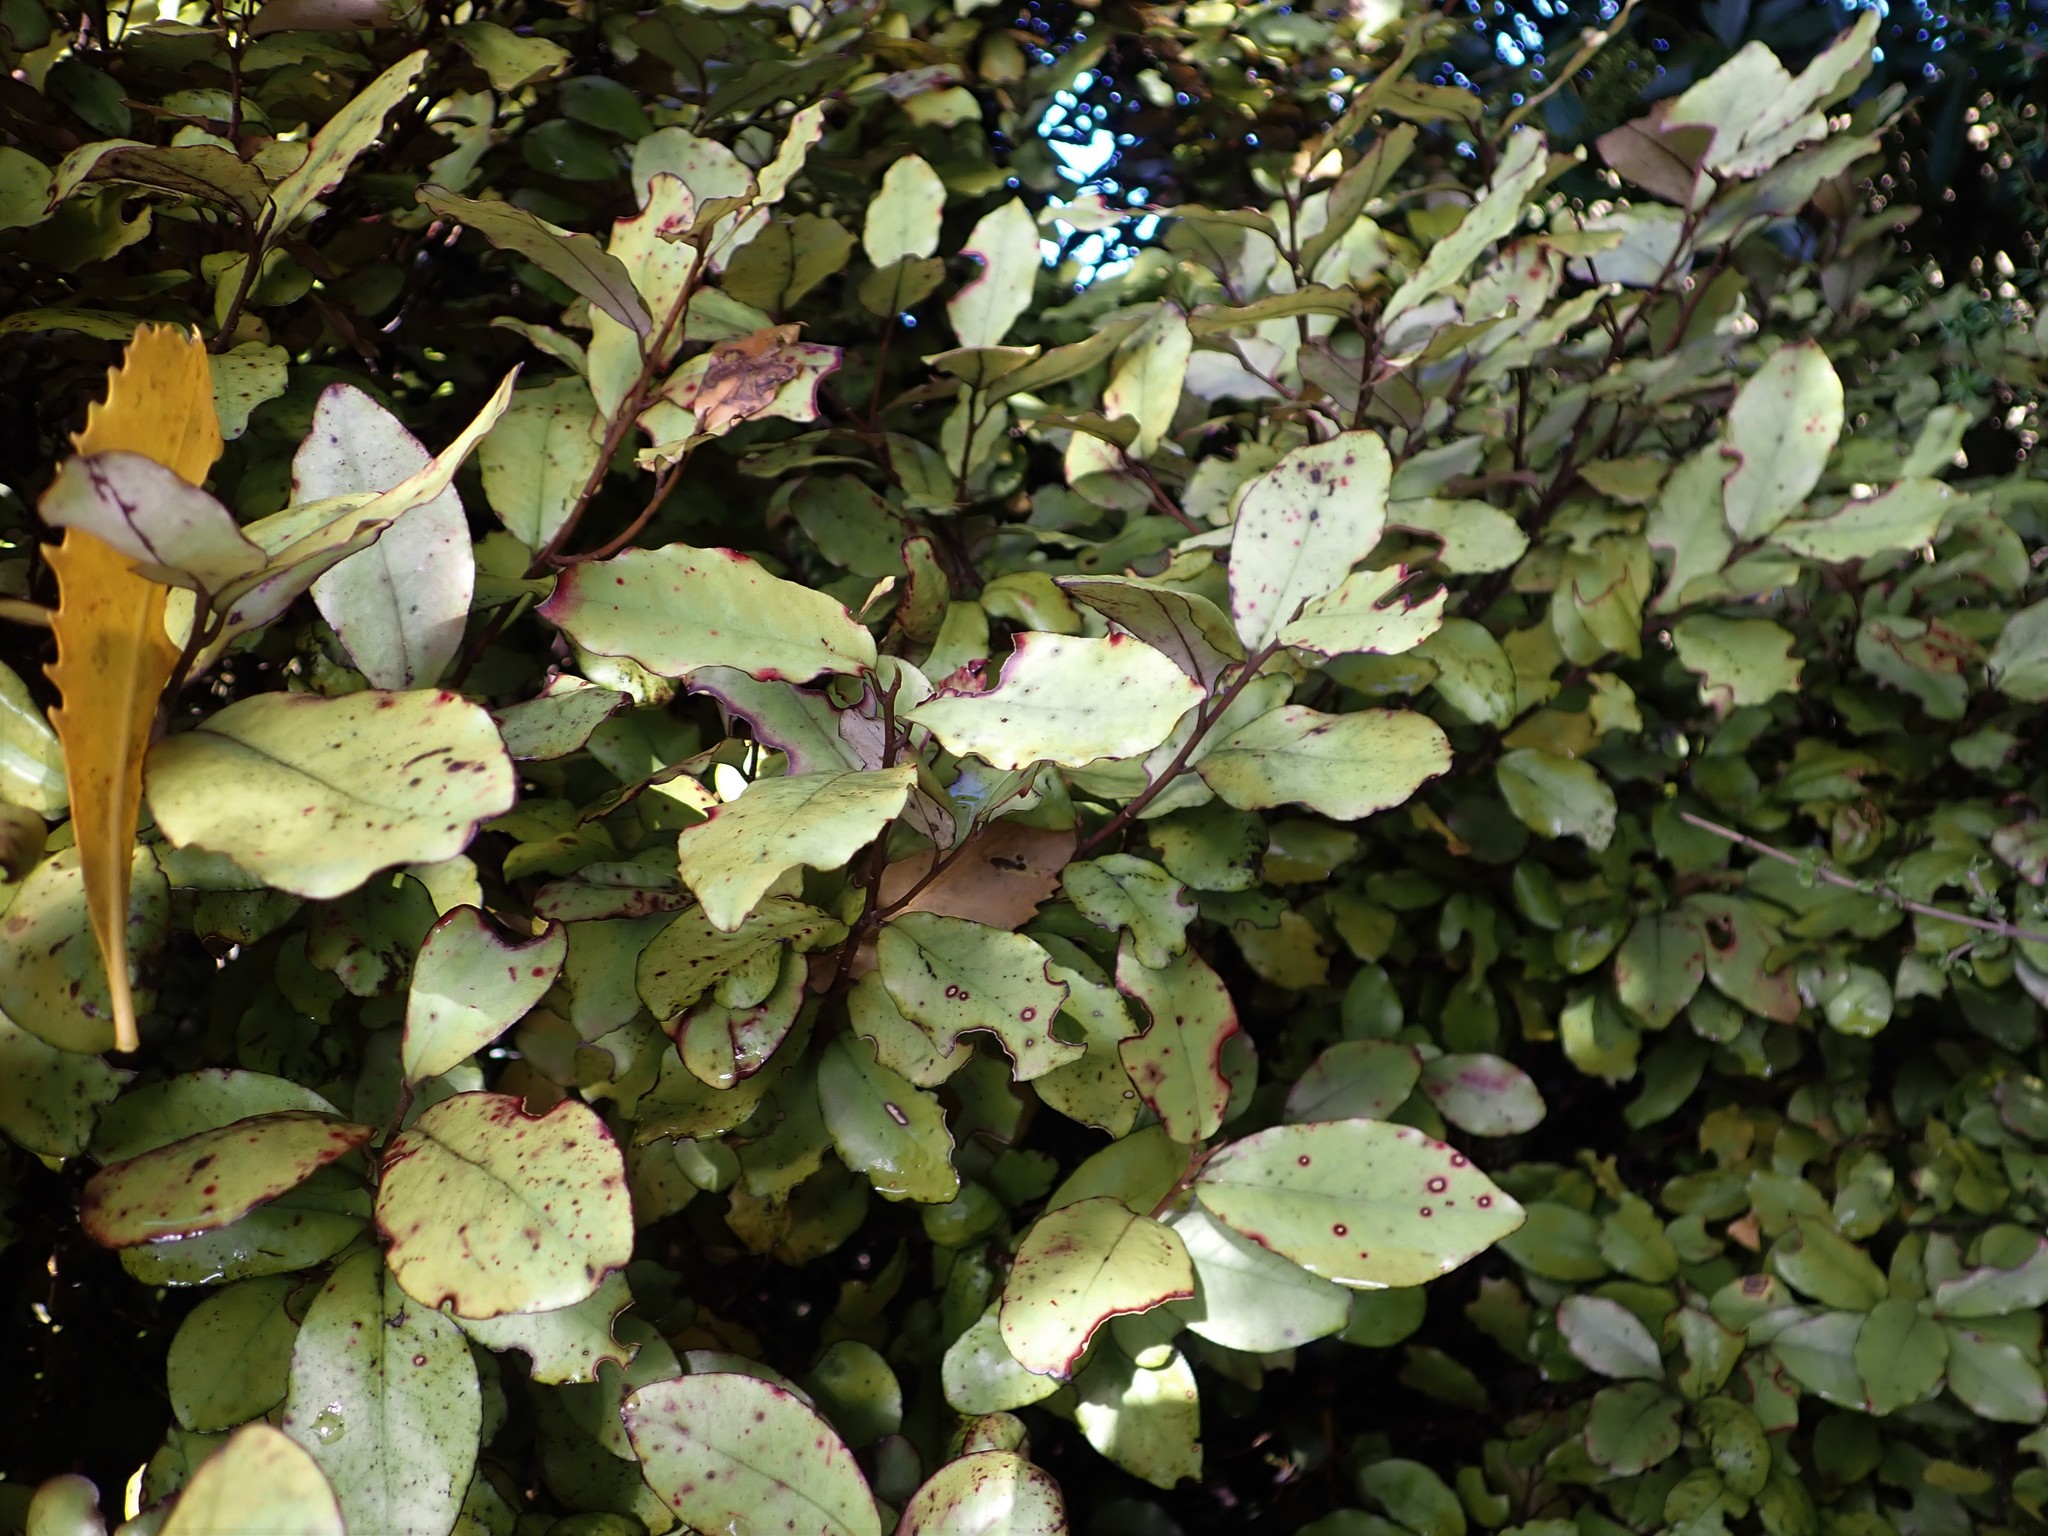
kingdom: Plantae
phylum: Tracheophyta
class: Magnoliopsida
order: Canellales
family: Winteraceae
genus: Pseudowintera
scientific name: Pseudowintera colorata
